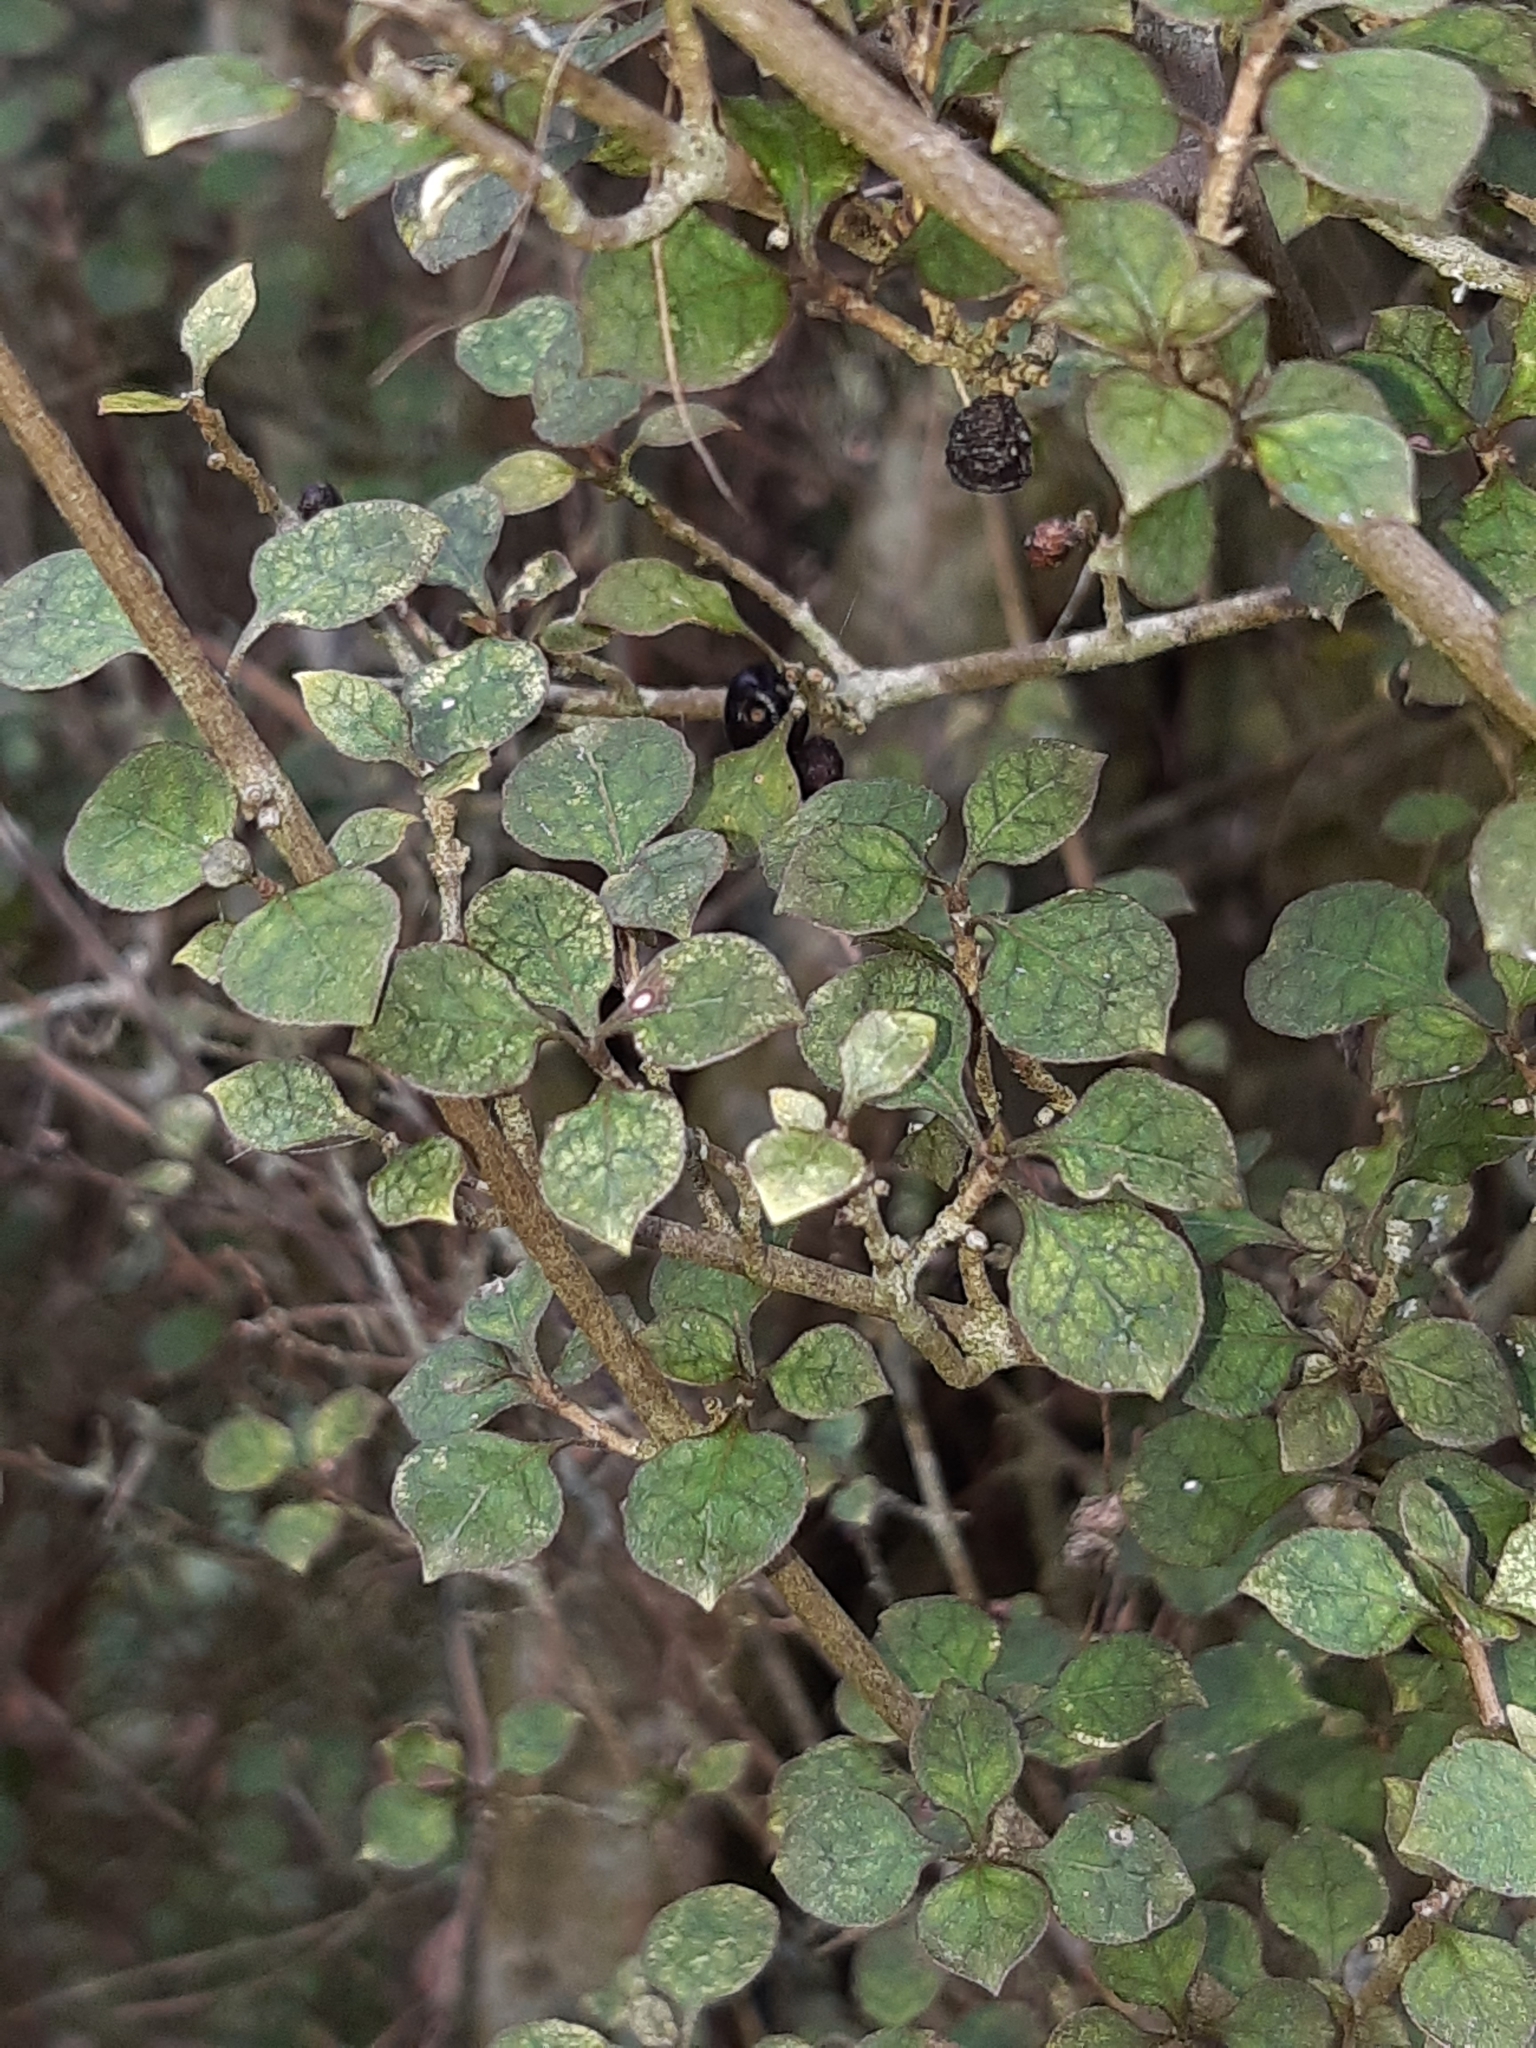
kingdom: Plantae
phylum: Tracheophyta
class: Magnoliopsida
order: Gentianales
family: Rubiaceae
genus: Coprosma
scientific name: Coprosma areolata
